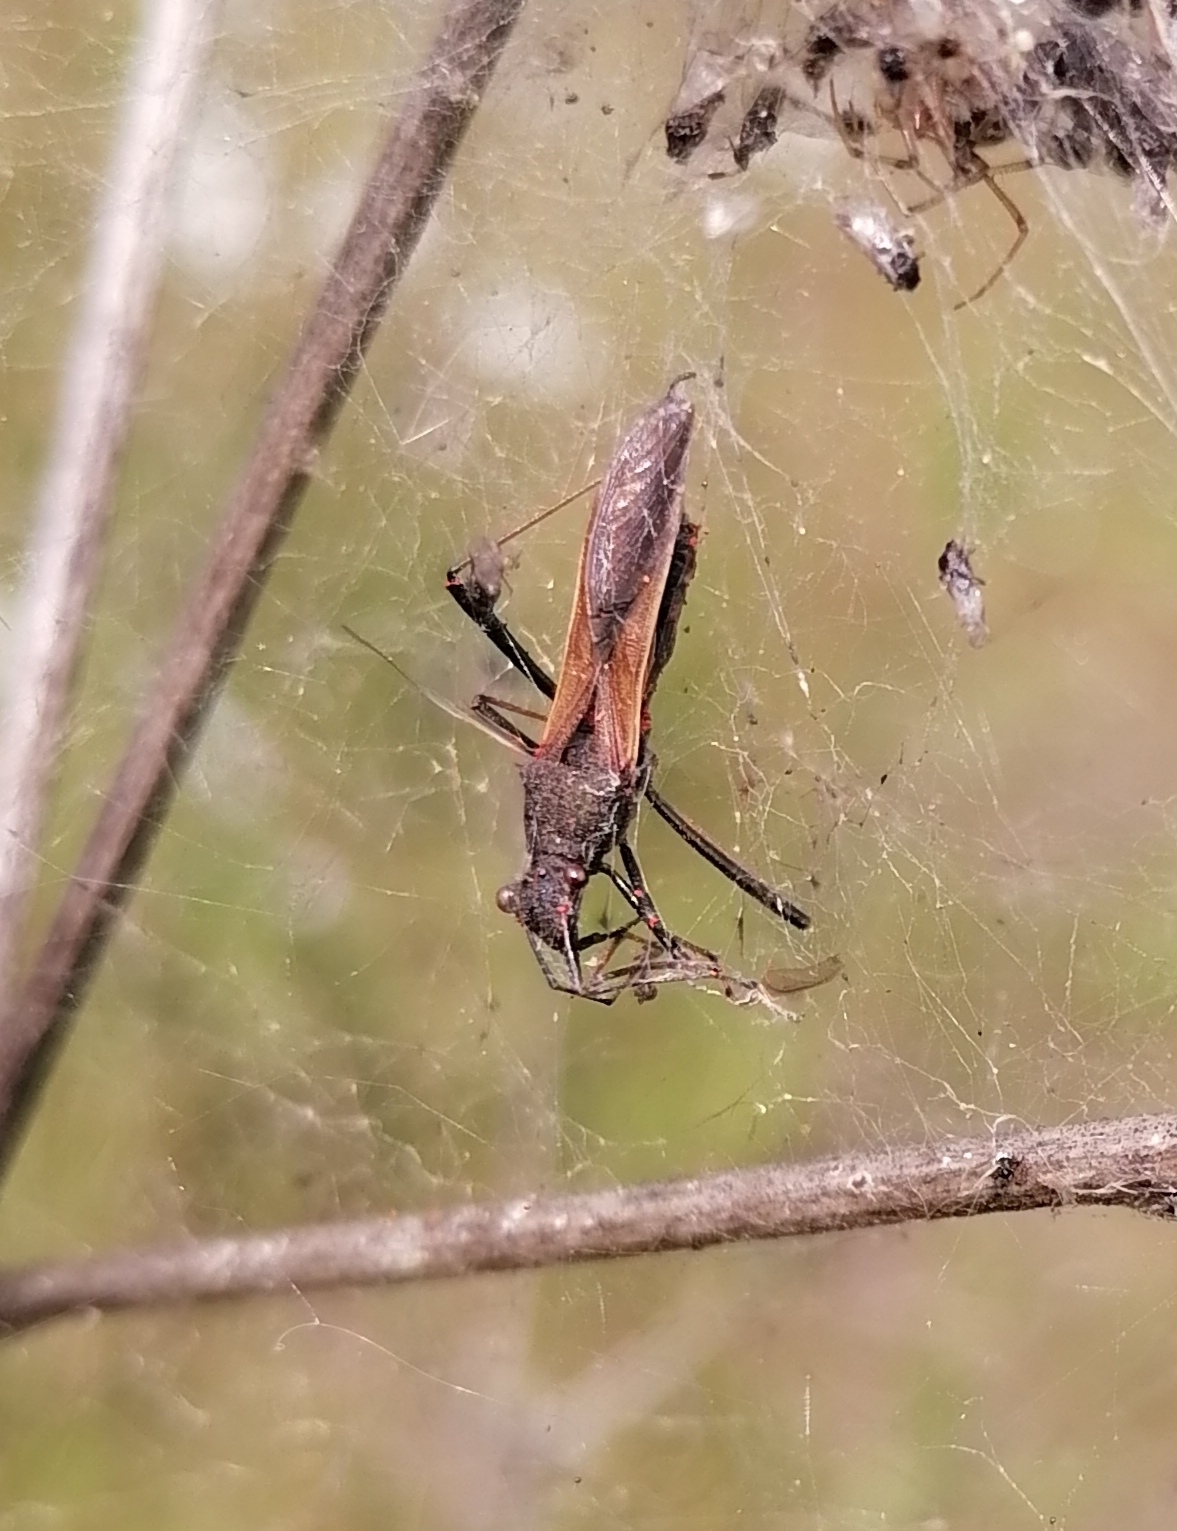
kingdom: Animalia
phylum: Arthropoda
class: Insecta
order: Hemiptera
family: Alydidae
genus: Megalotomus
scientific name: Megalotomus junceus
